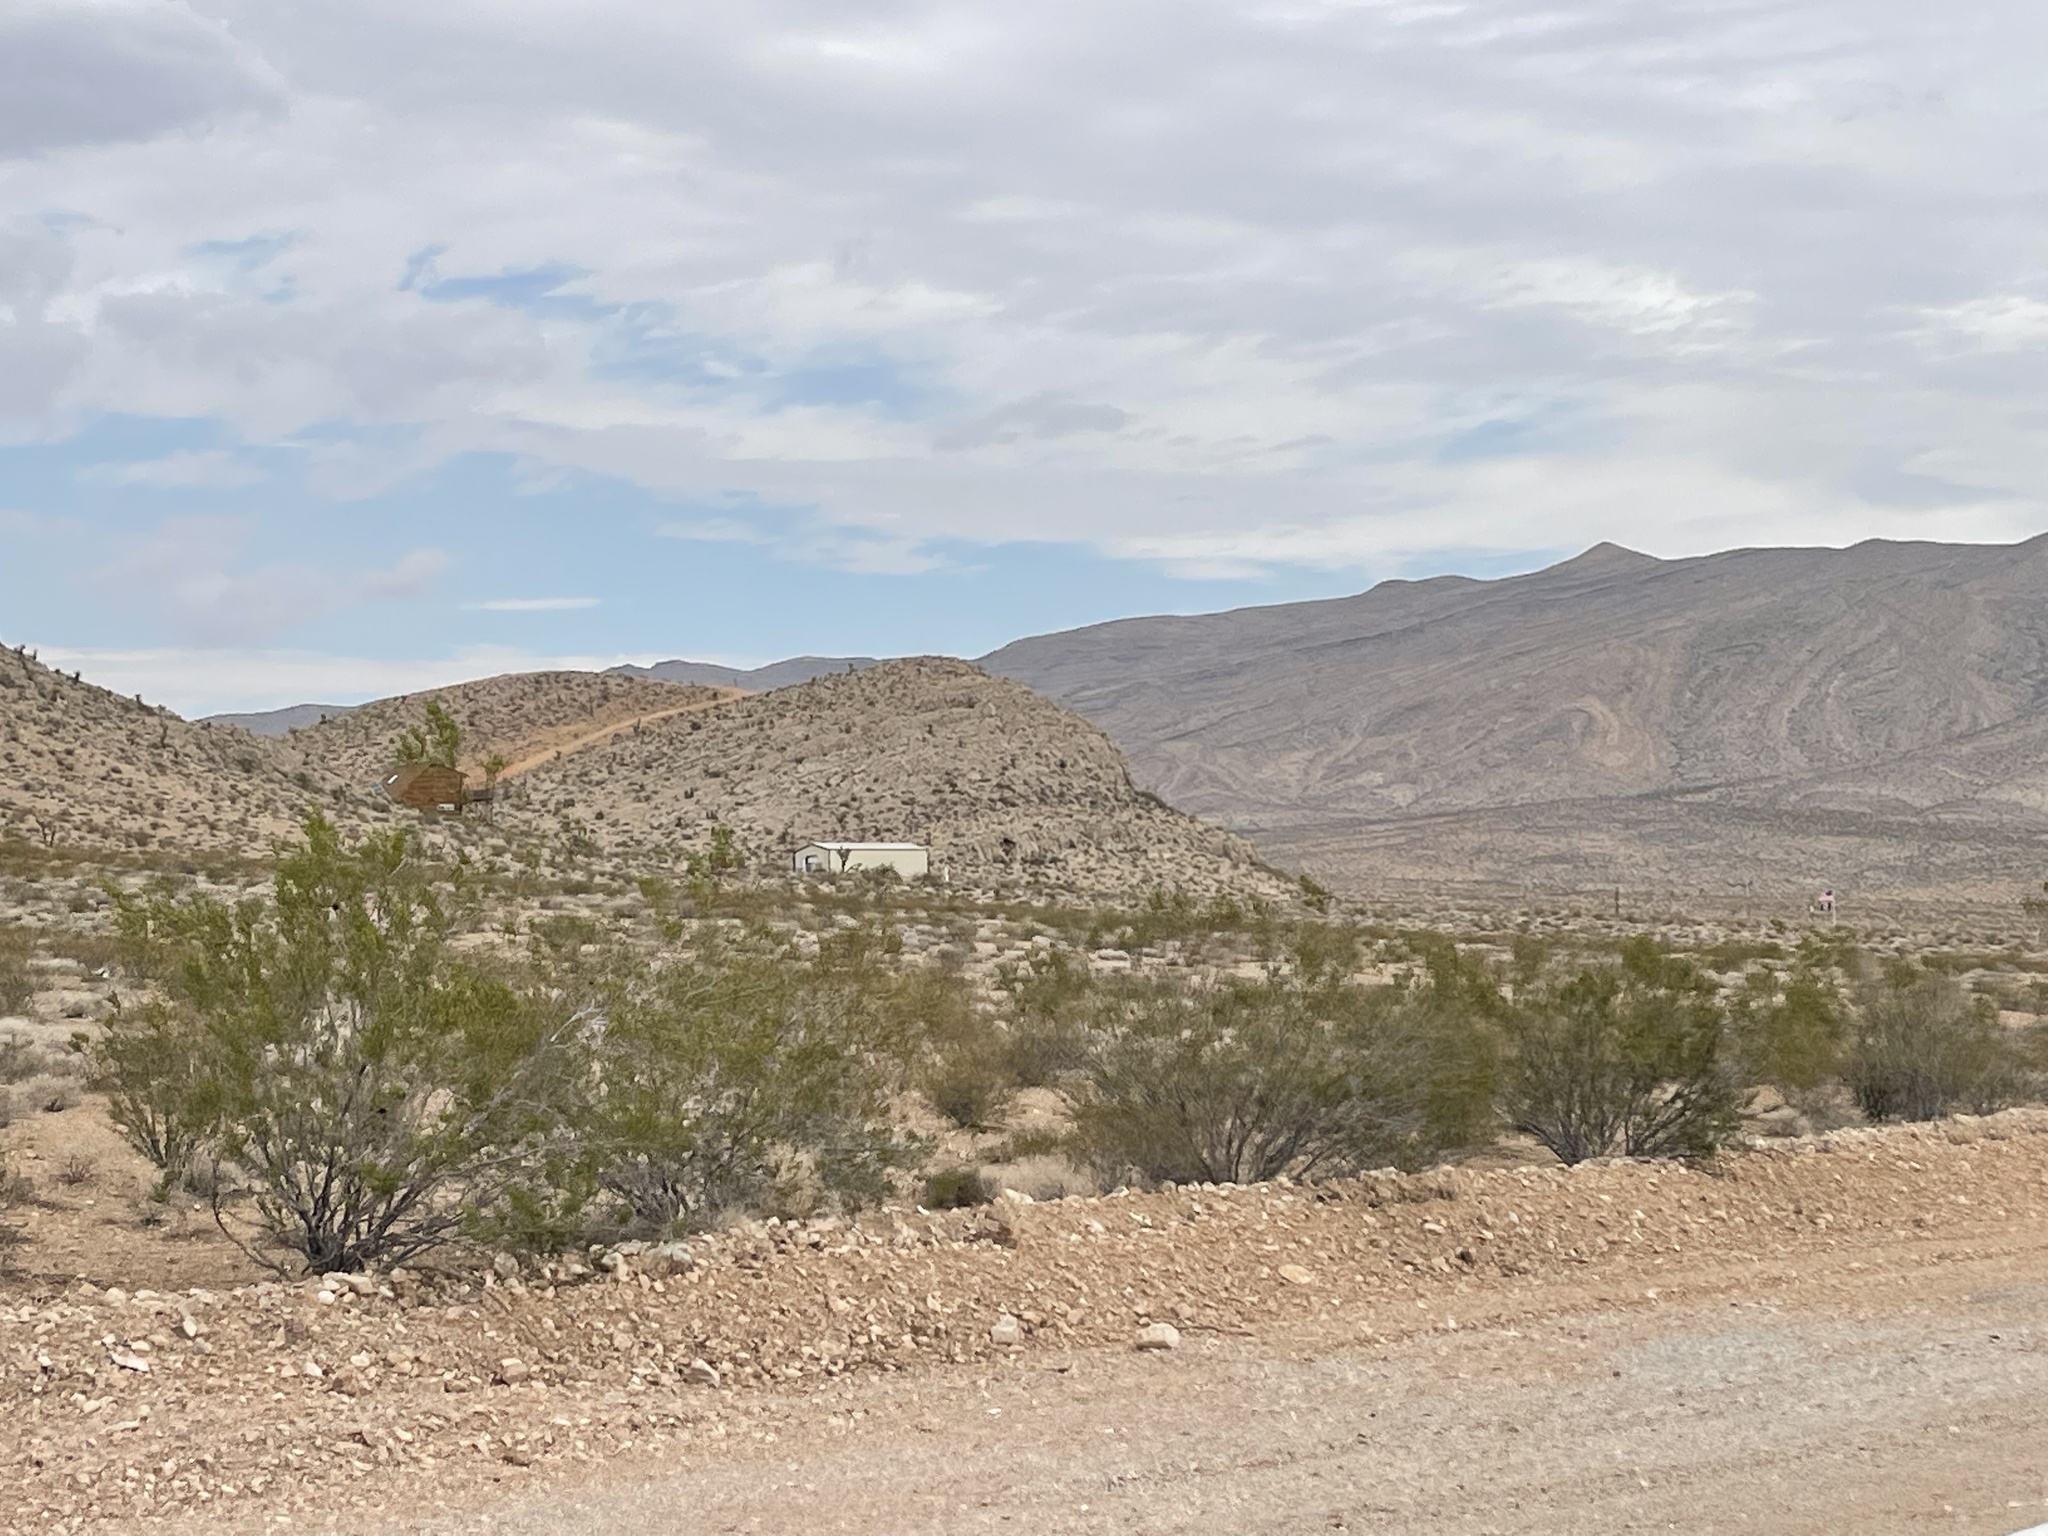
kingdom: Plantae
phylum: Tracheophyta
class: Magnoliopsida
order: Zygophyllales
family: Zygophyllaceae
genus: Larrea
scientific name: Larrea tridentata
